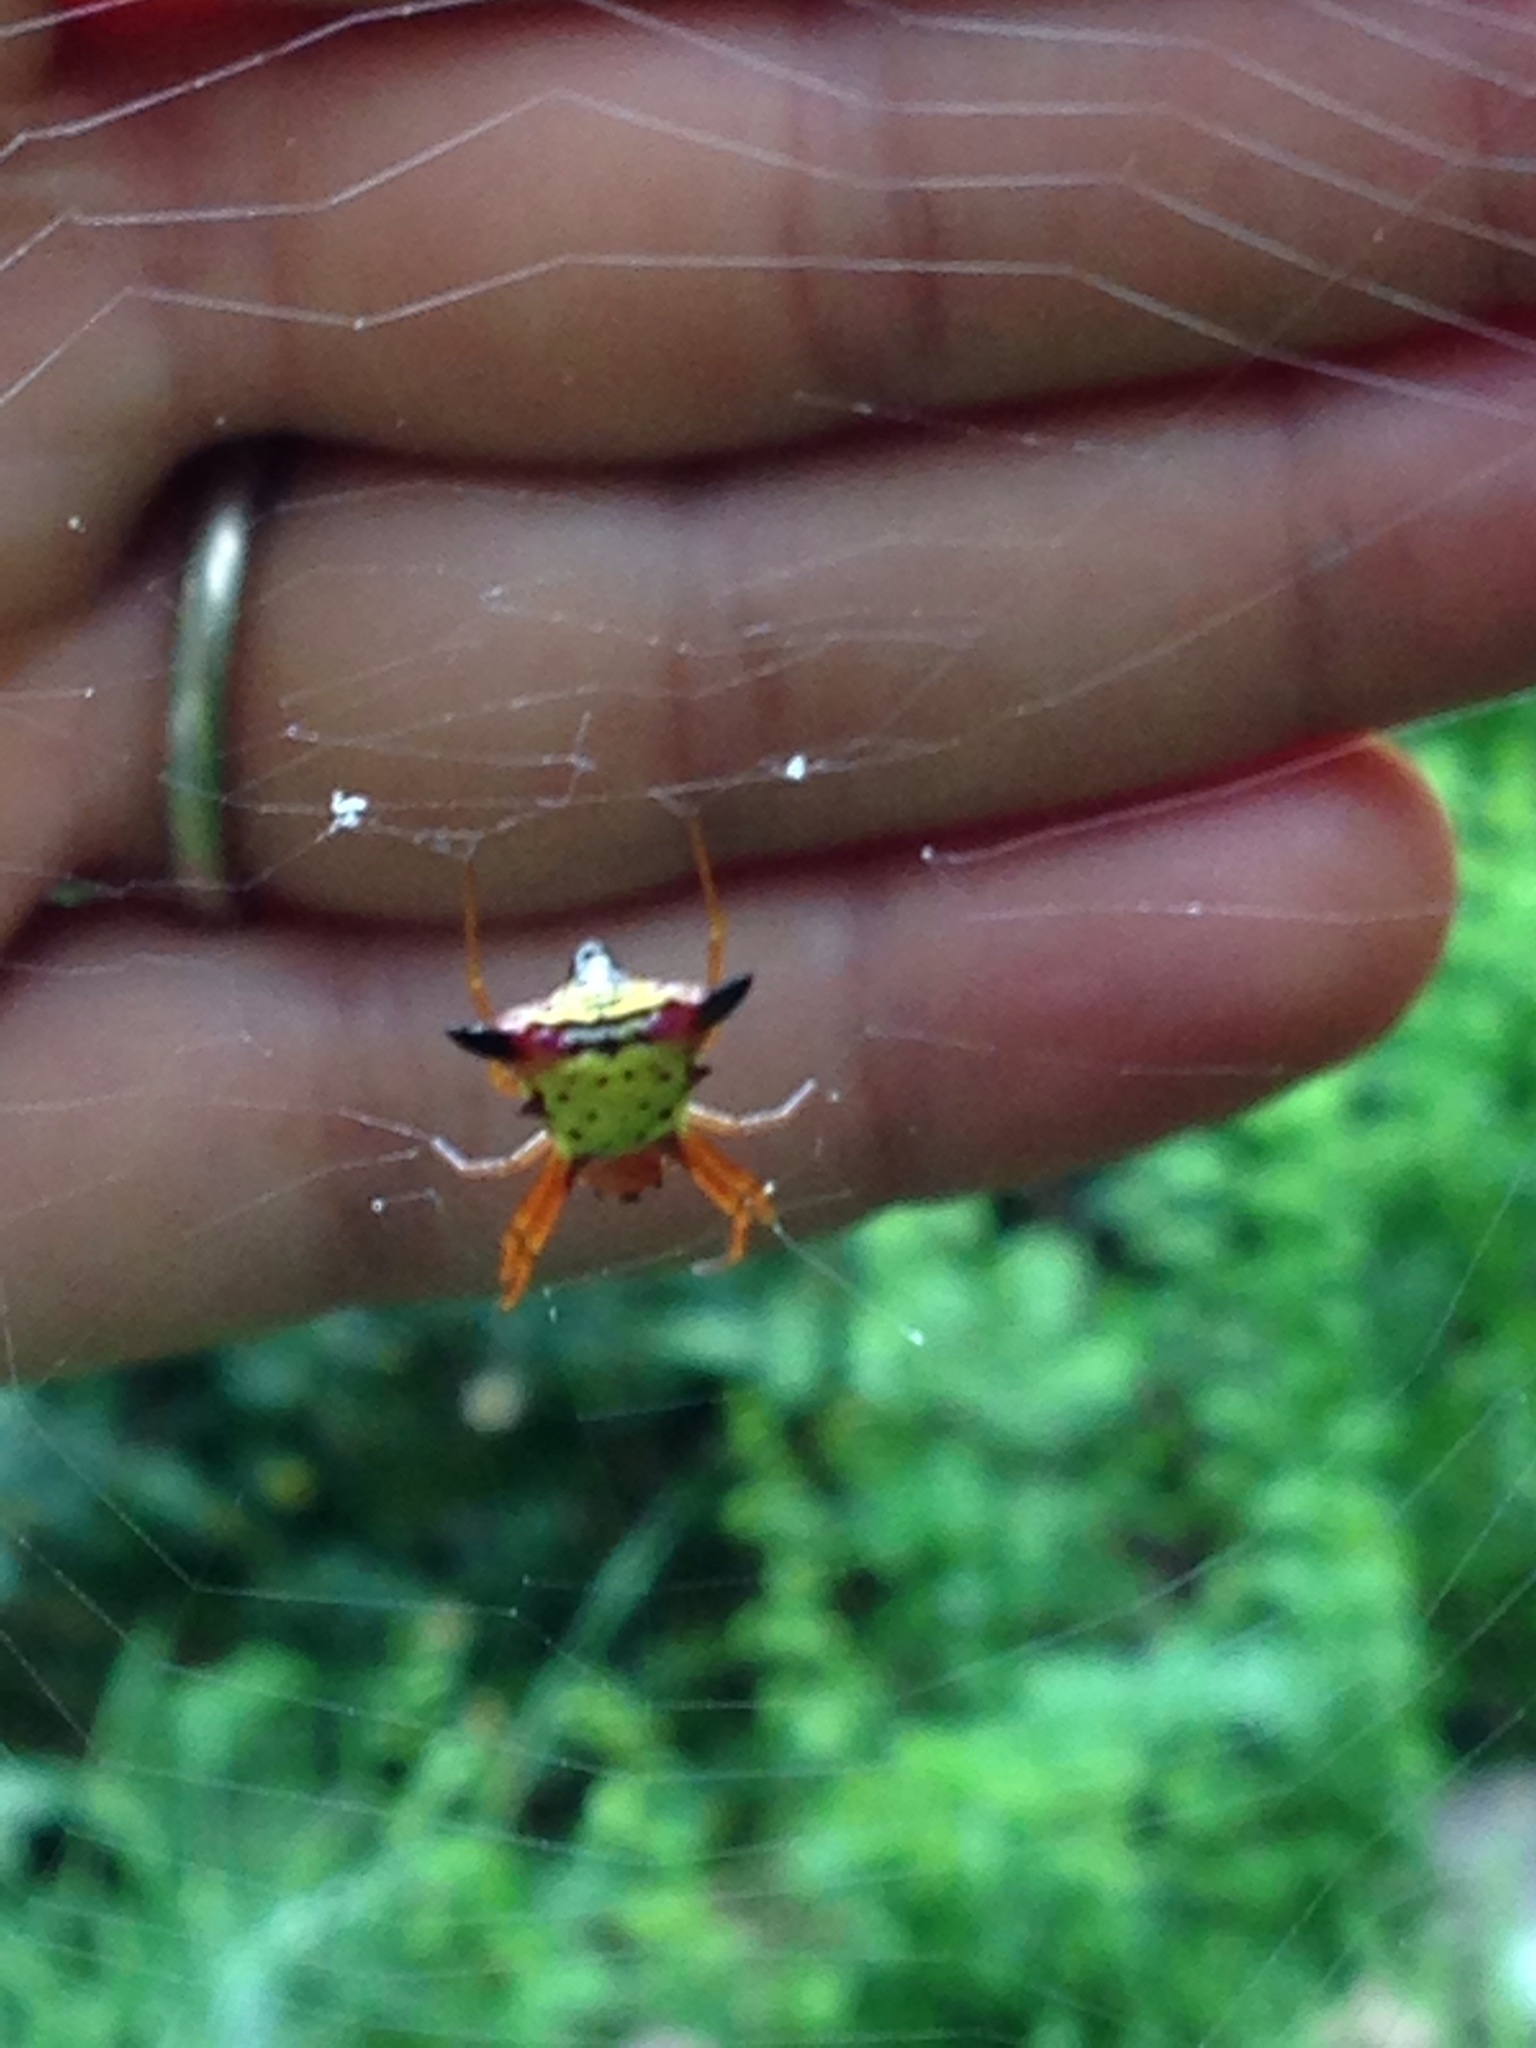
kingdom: Animalia
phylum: Arthropoda
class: Arachnida
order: Araneae
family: Araneidae
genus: Micrathena
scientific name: Micrathena sagittata
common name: Orb weavers
